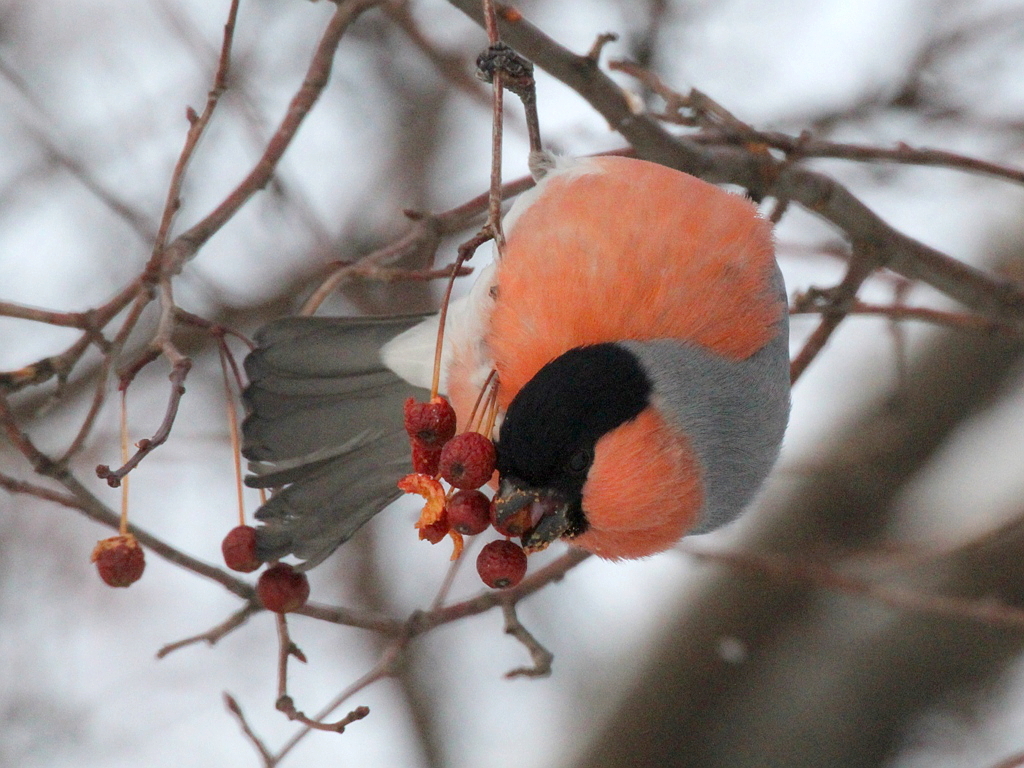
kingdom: Animalia
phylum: Chordata
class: Aves
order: Passeriformes
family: Fringillidae
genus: Pyrrhula
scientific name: Pyrrhula pyrrhula
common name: Eurasian bullfinch
